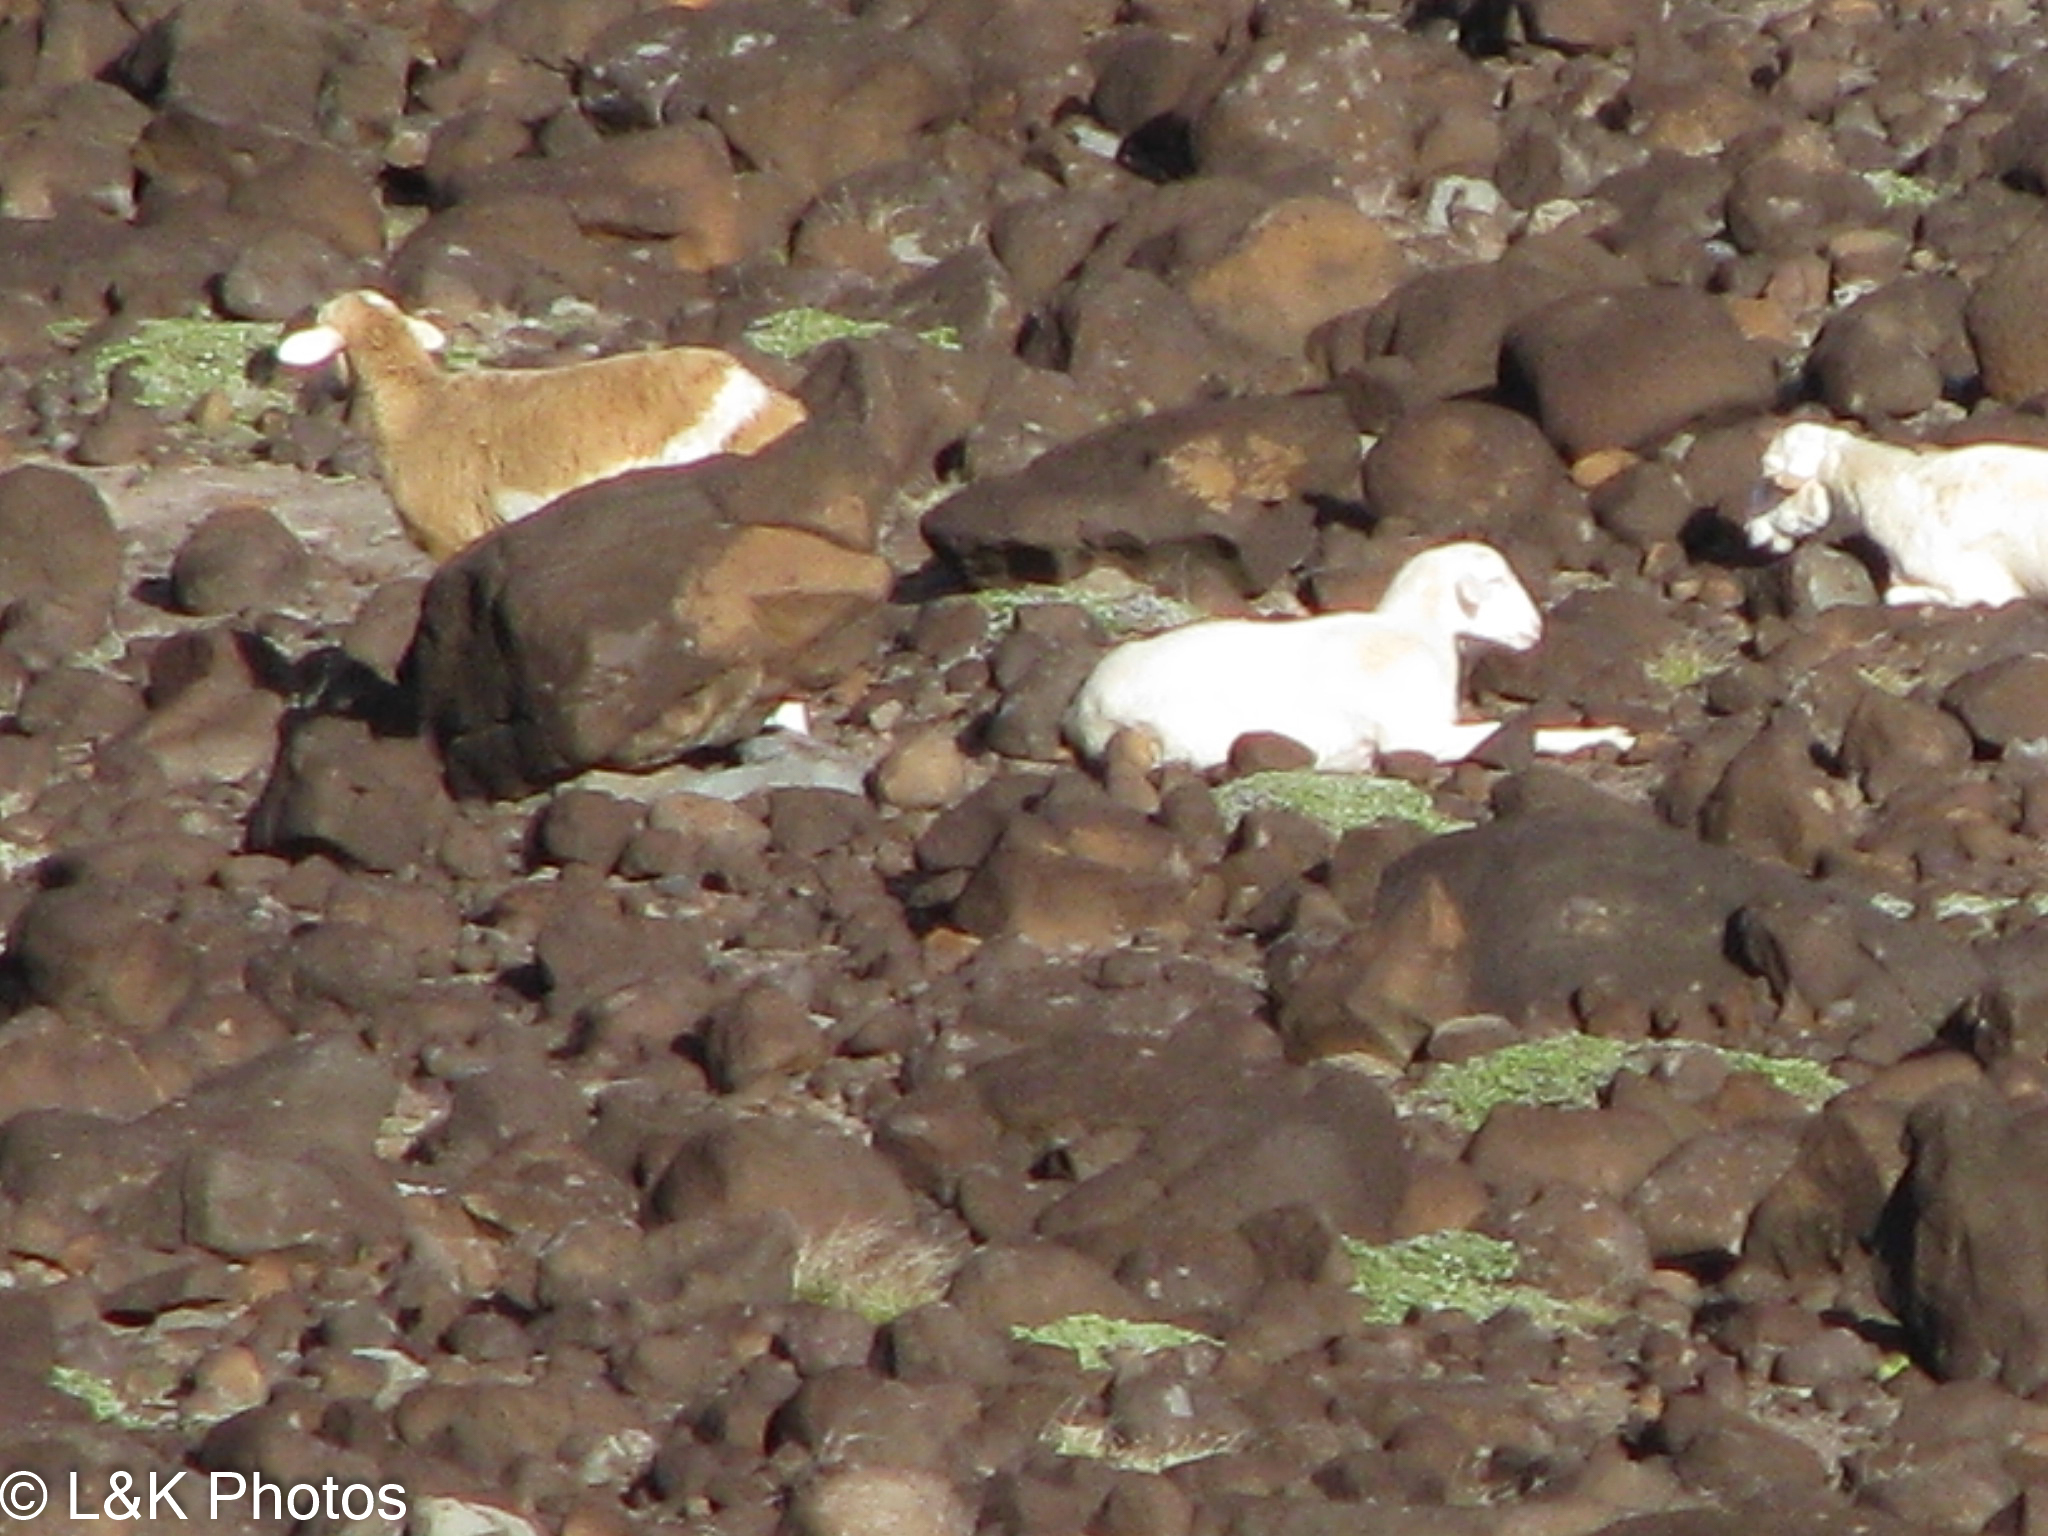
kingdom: Animalia
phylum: Chordata
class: Mammalia
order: Artiodactyla
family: Bovidae
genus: Capra
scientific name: Capra hircus
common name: Domestic goat
